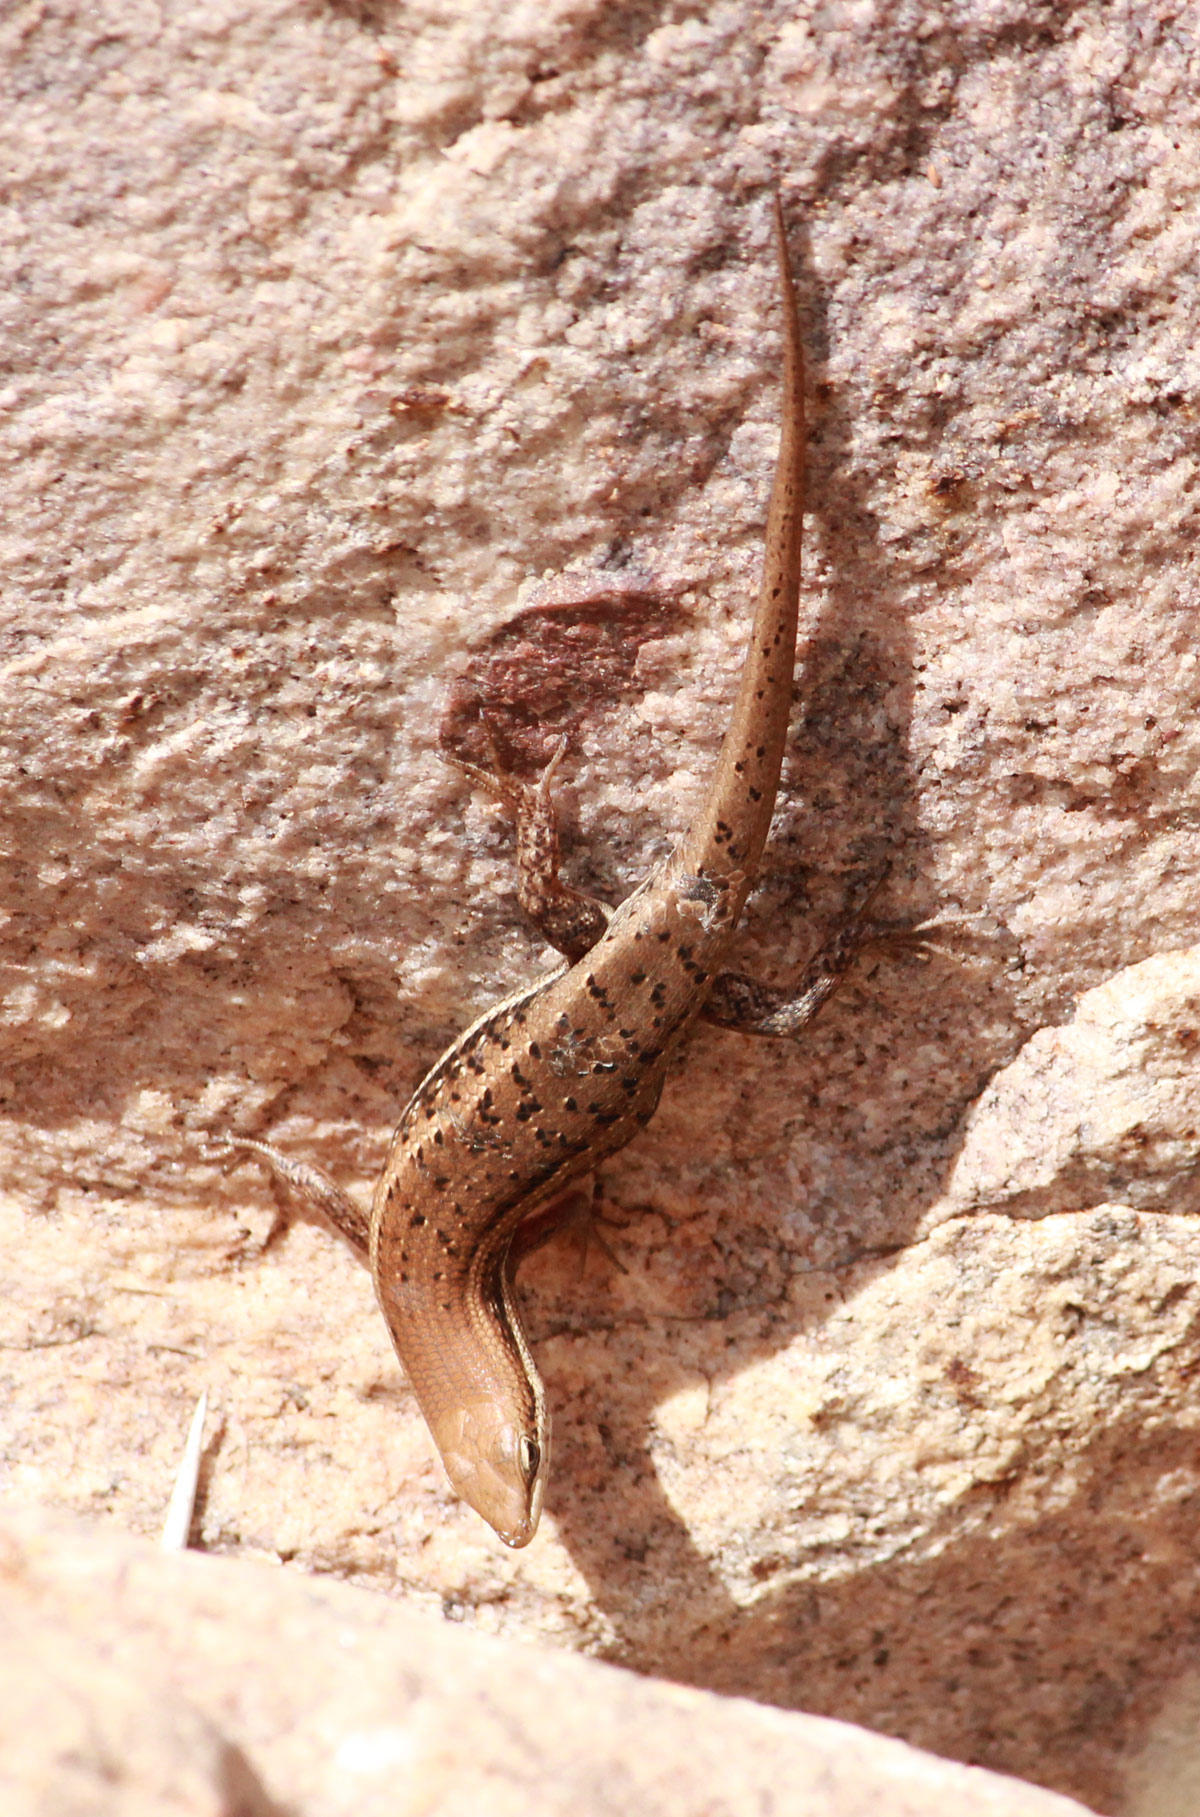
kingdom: Animalia
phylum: Chordata
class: Squamata
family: Scincidae
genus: Trachylepis
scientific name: Trachylepis varia
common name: Eastern variable skink
